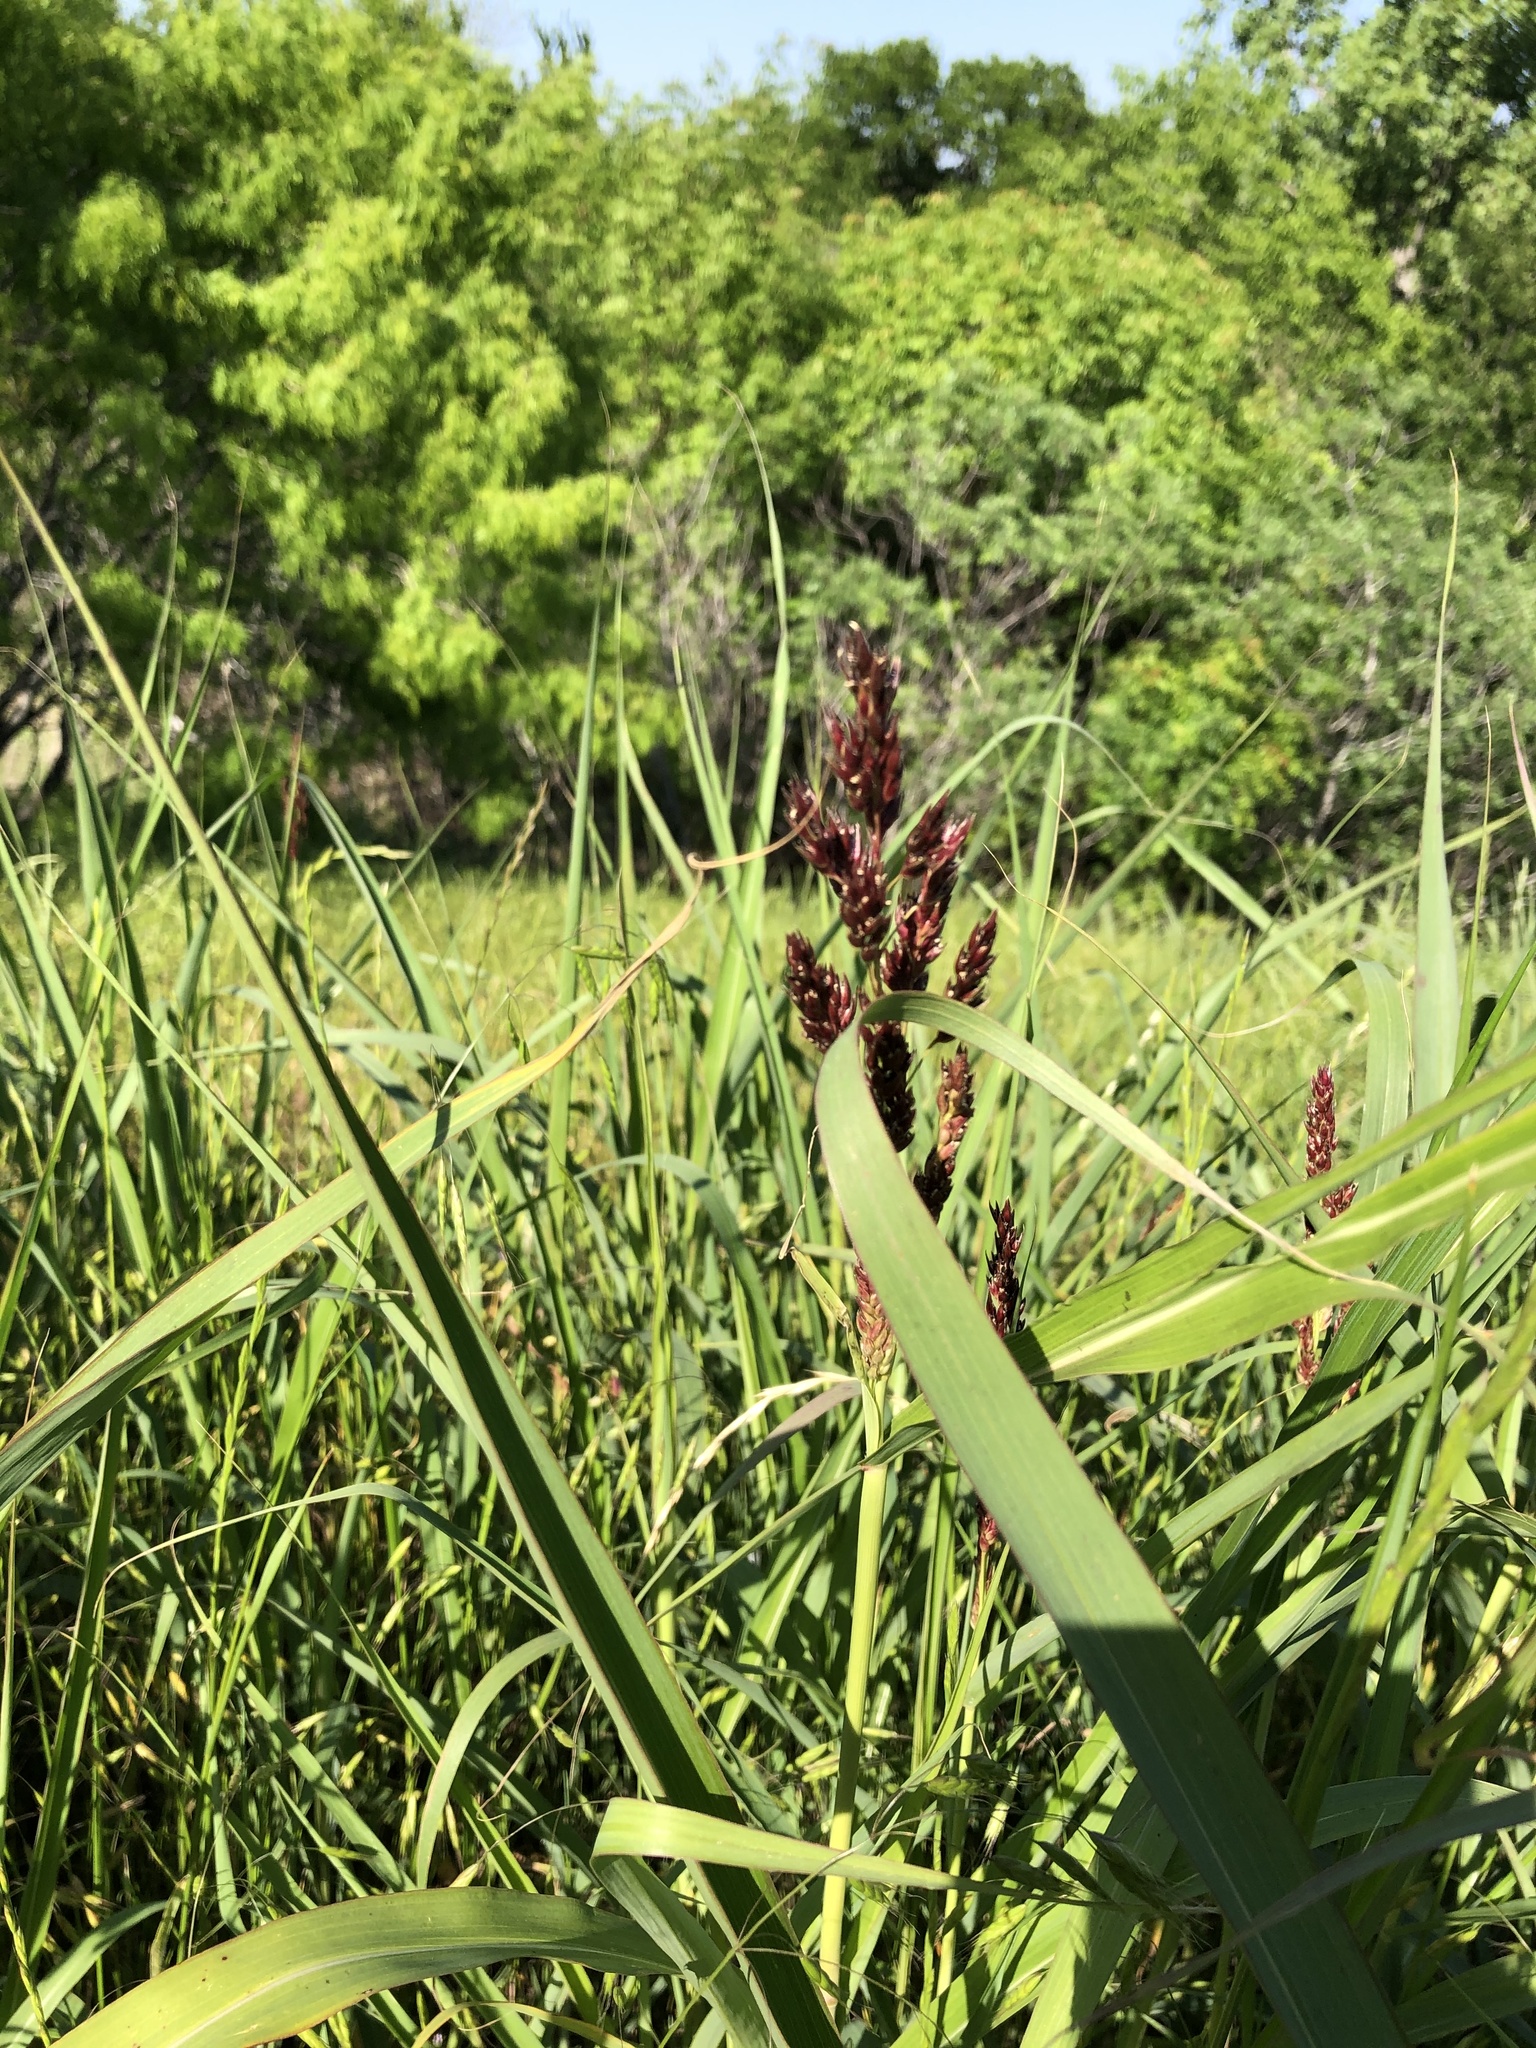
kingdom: Plantae
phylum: Tracheophyta
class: Liliopsida
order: Poales
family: Poaceae
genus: Sorghum
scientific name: Sorghum halepense
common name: Johnson-grass
